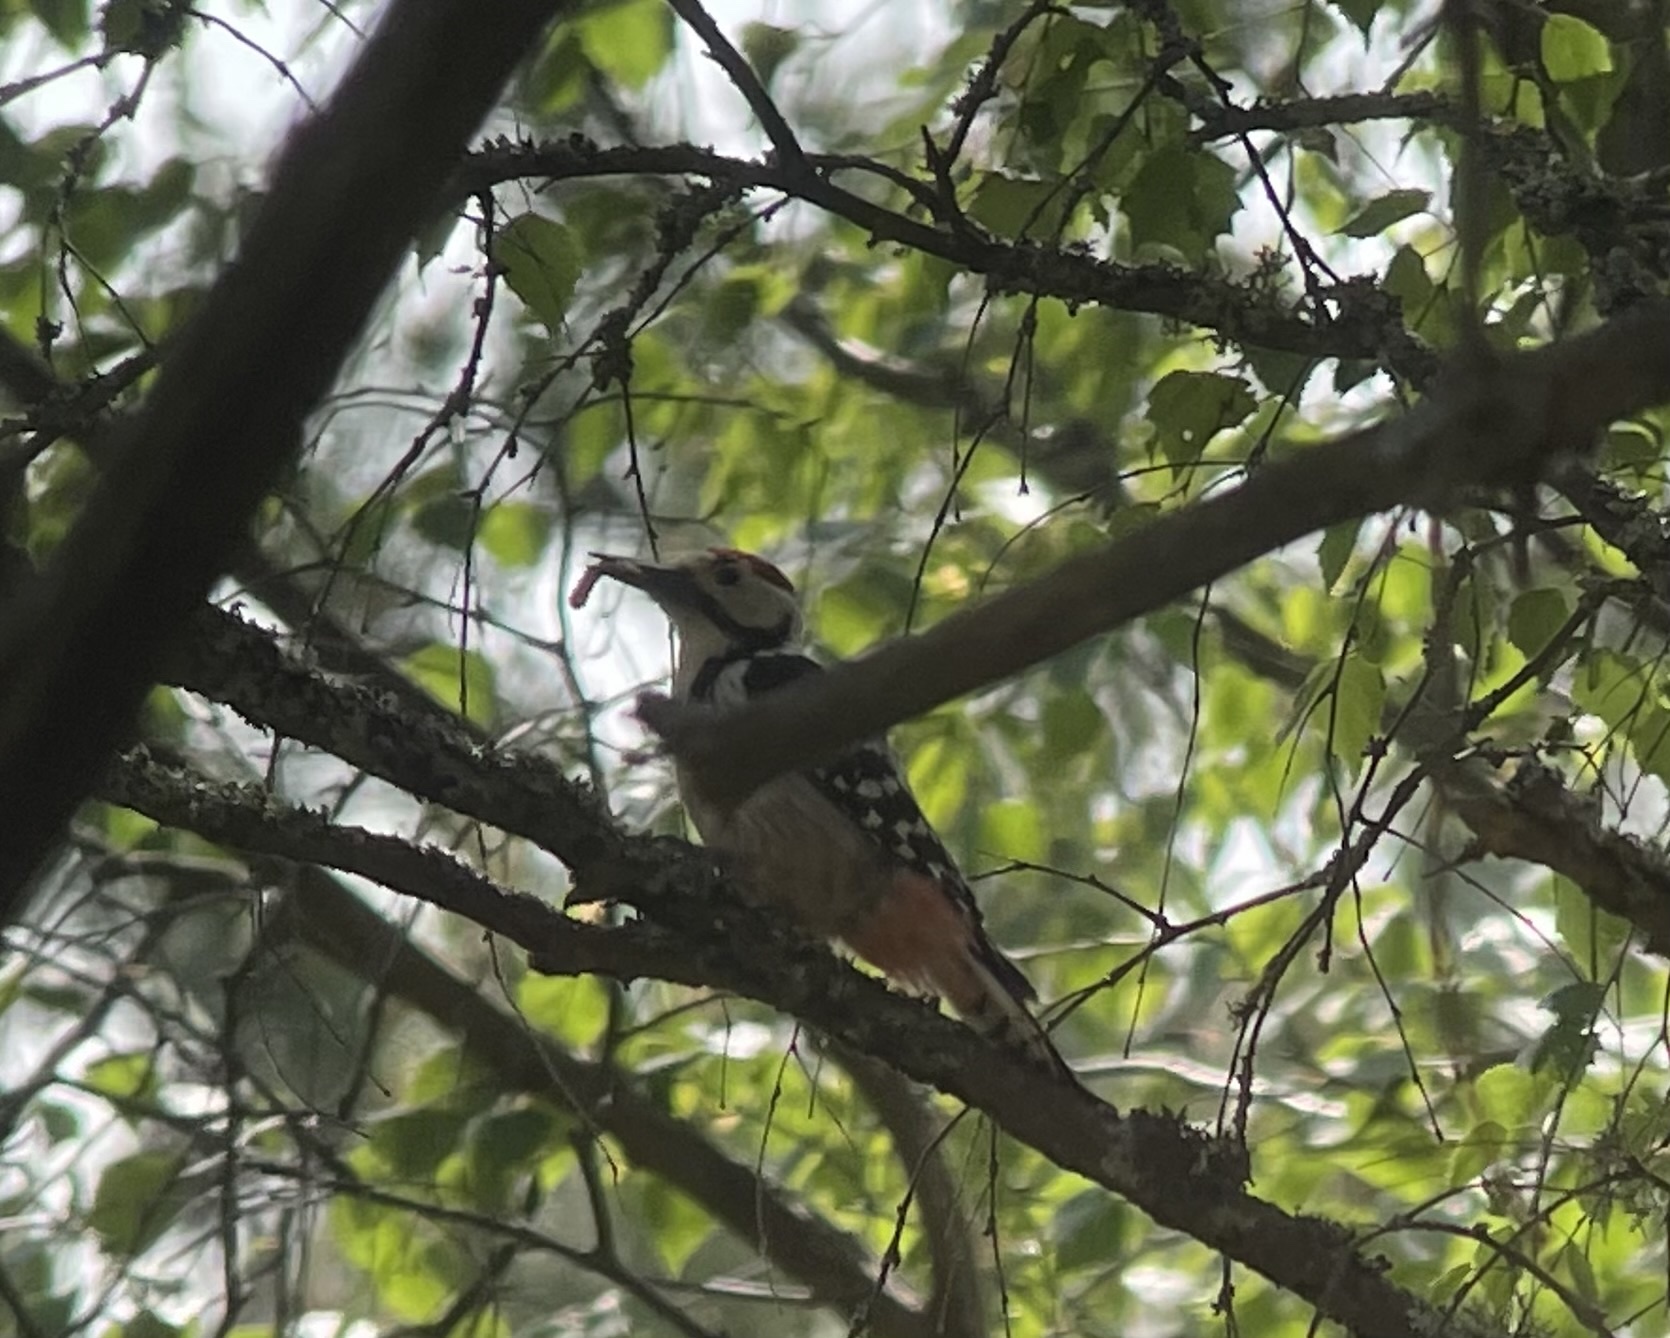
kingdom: Animalia
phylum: Chordata
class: Aves
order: Piciformes
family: Picidae
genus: Dendrocopos
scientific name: Dendrocopos leucotos
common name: White-backed woodpecker
